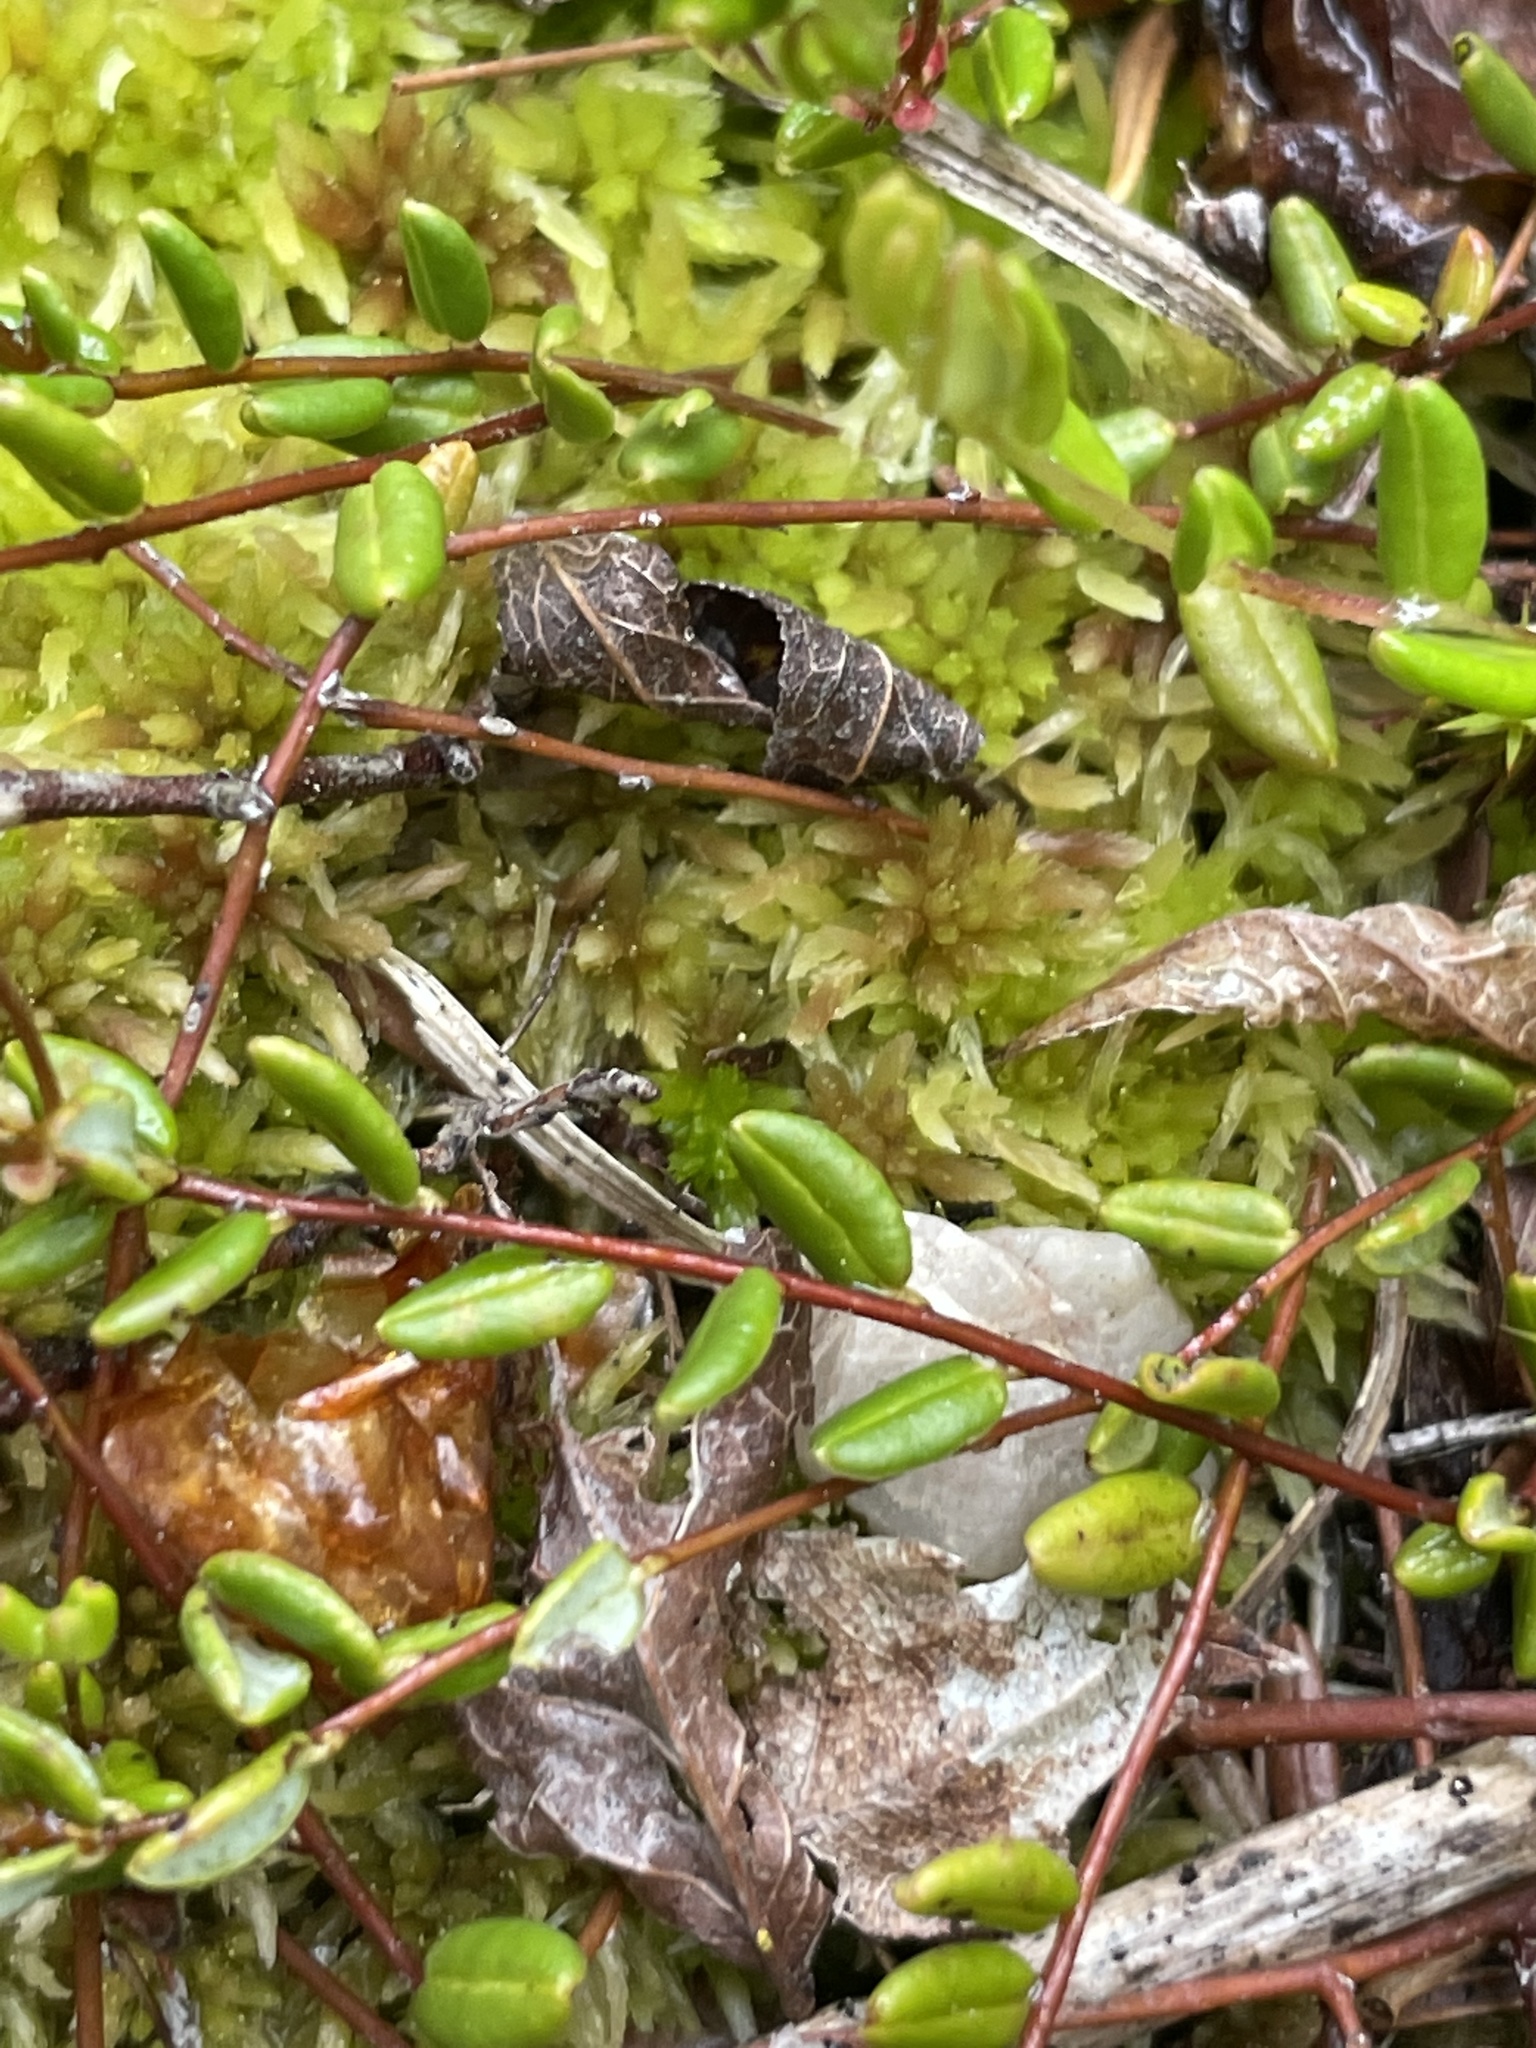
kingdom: Plantae
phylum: Tracheophyta
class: Magnoliopsida
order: Ericales
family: Ericaceae
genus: Vaccinium
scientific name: Vaccinium oxycoccos
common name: Cranberry
